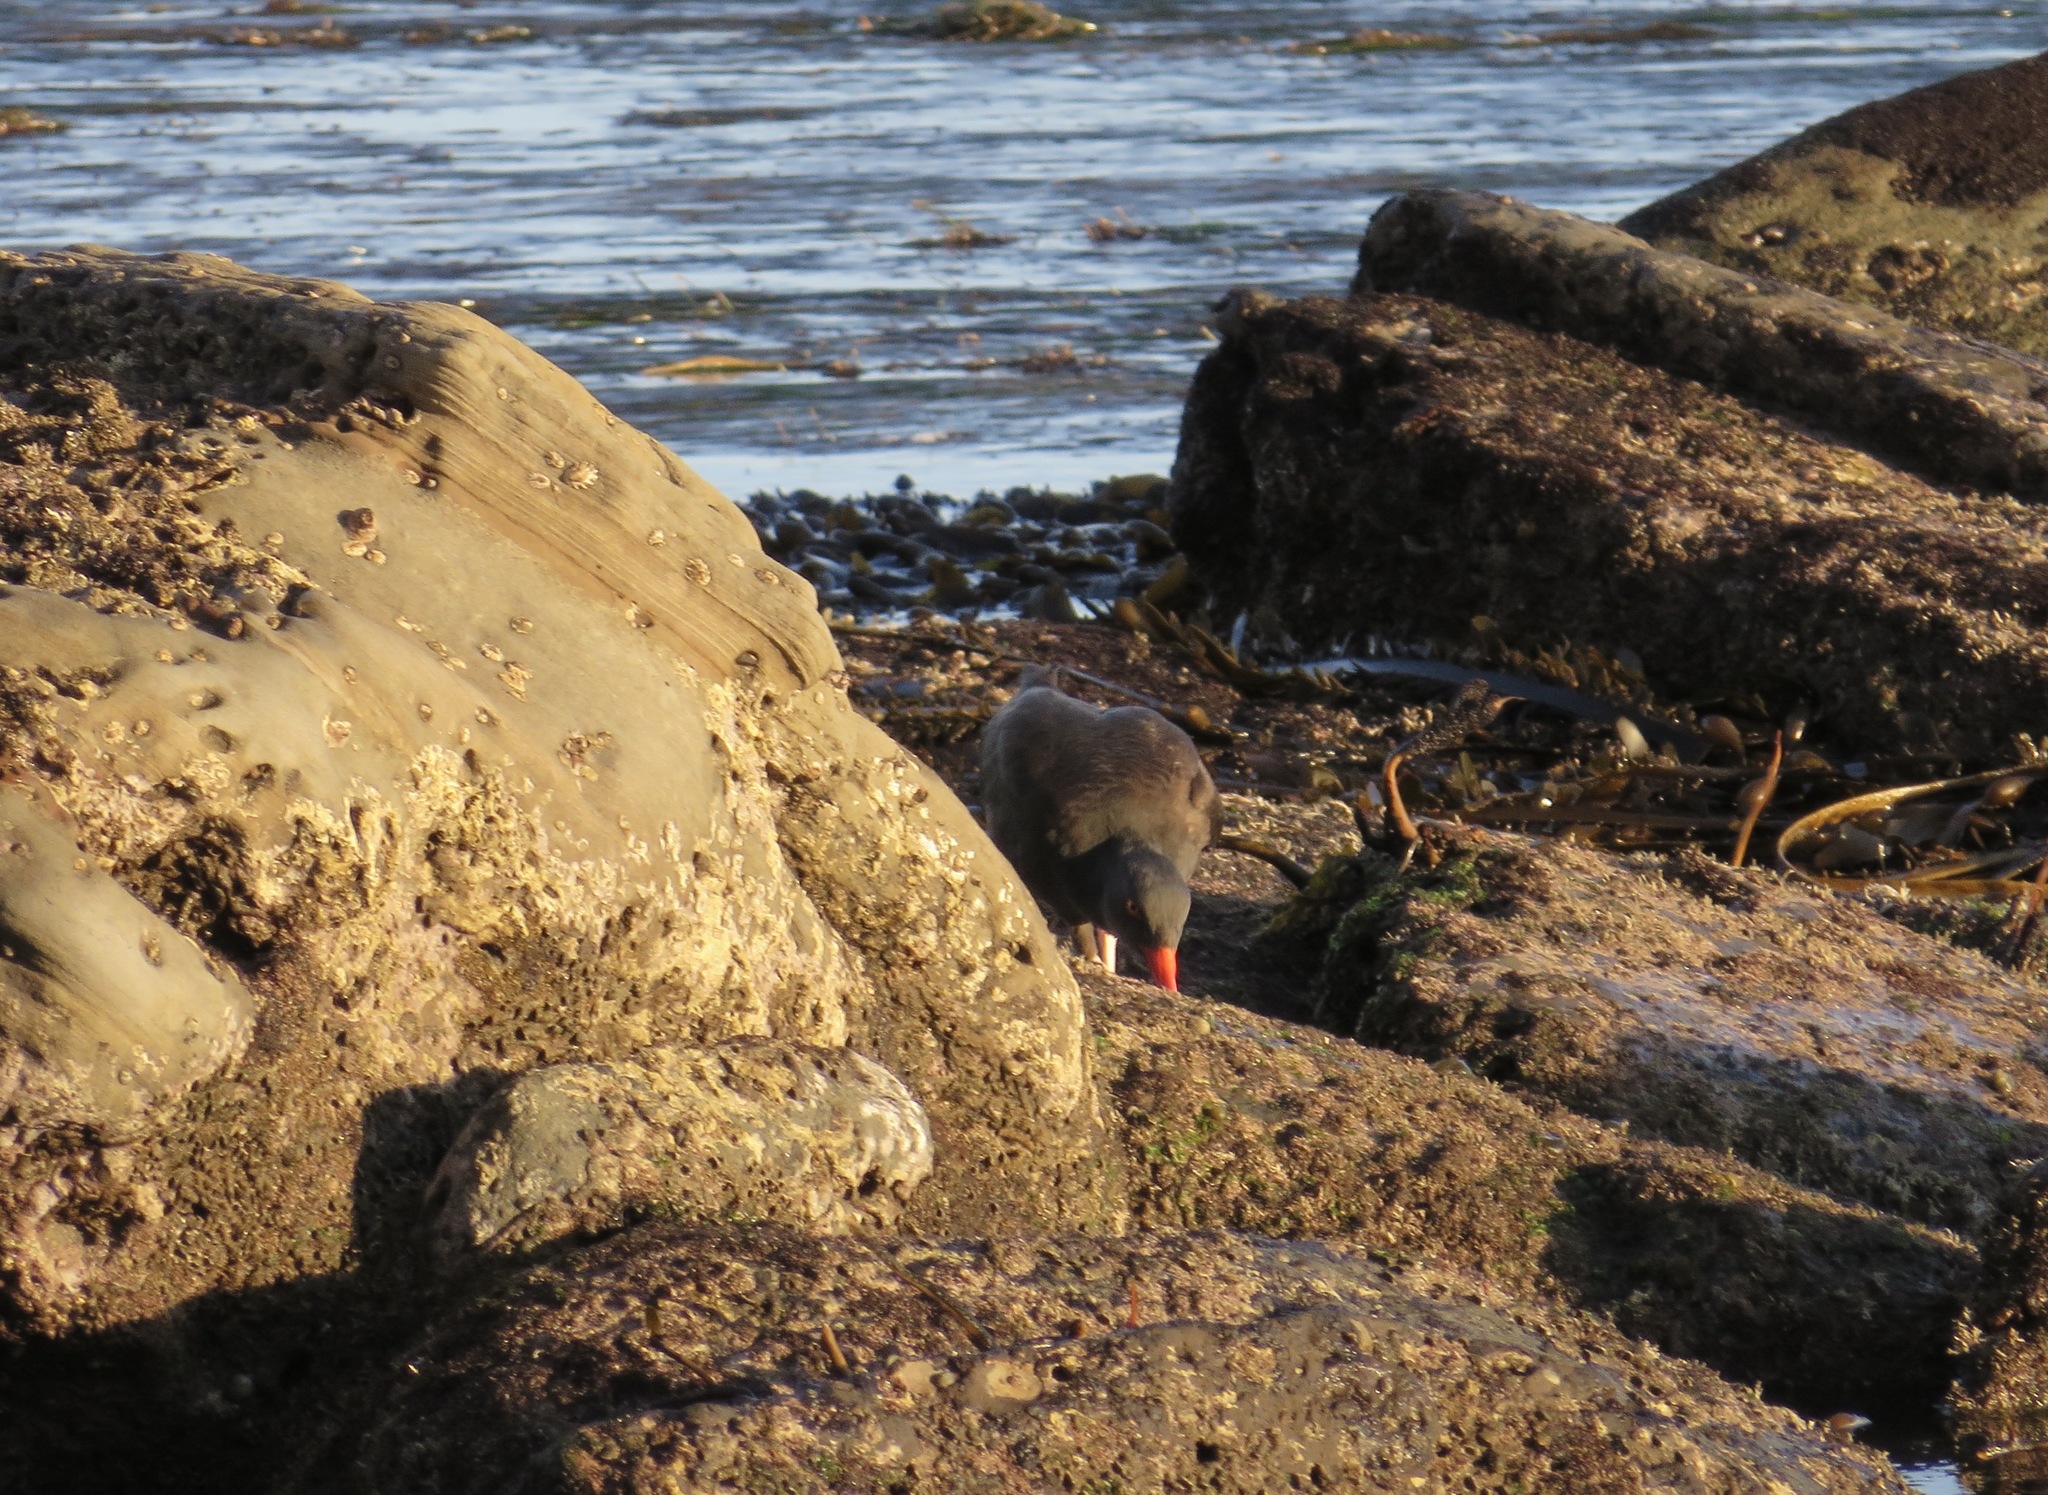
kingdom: Animalia
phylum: Chordata
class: Aves
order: Charadriiformes
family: Haematopodidae
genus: Haematopus
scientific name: Haematopus bachmani
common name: Black oystercatcher
